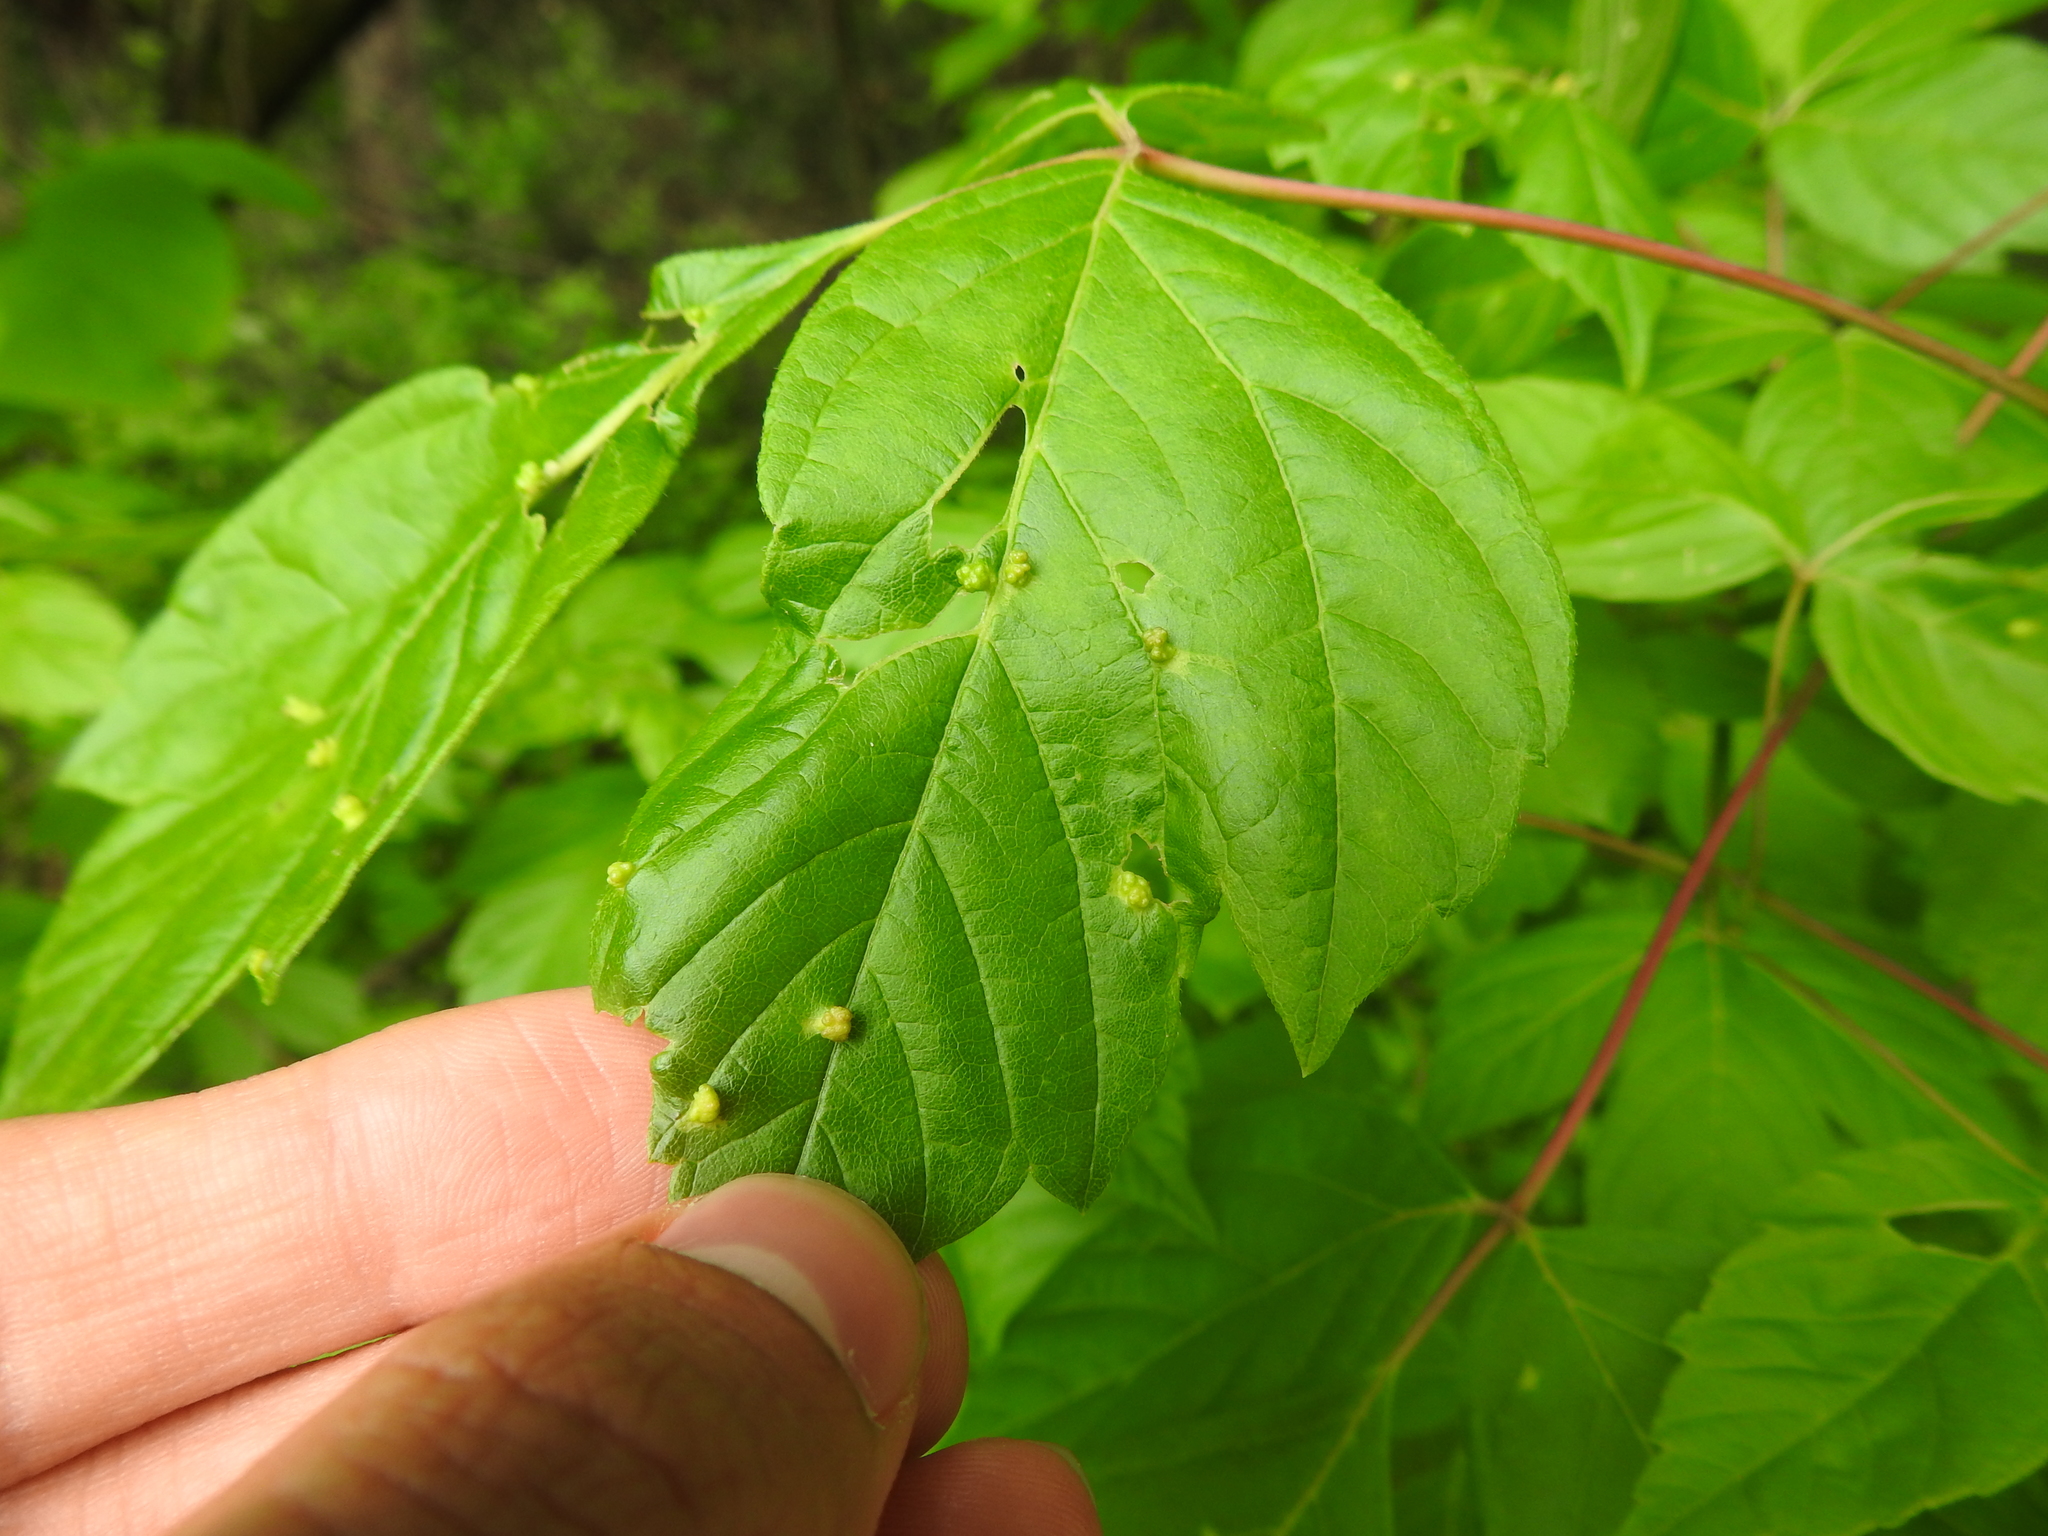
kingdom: Animalia
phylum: Arthropoda
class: Arachnida
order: Trombidiformes
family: Eriophyidae
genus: Aceria
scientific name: Aceria
